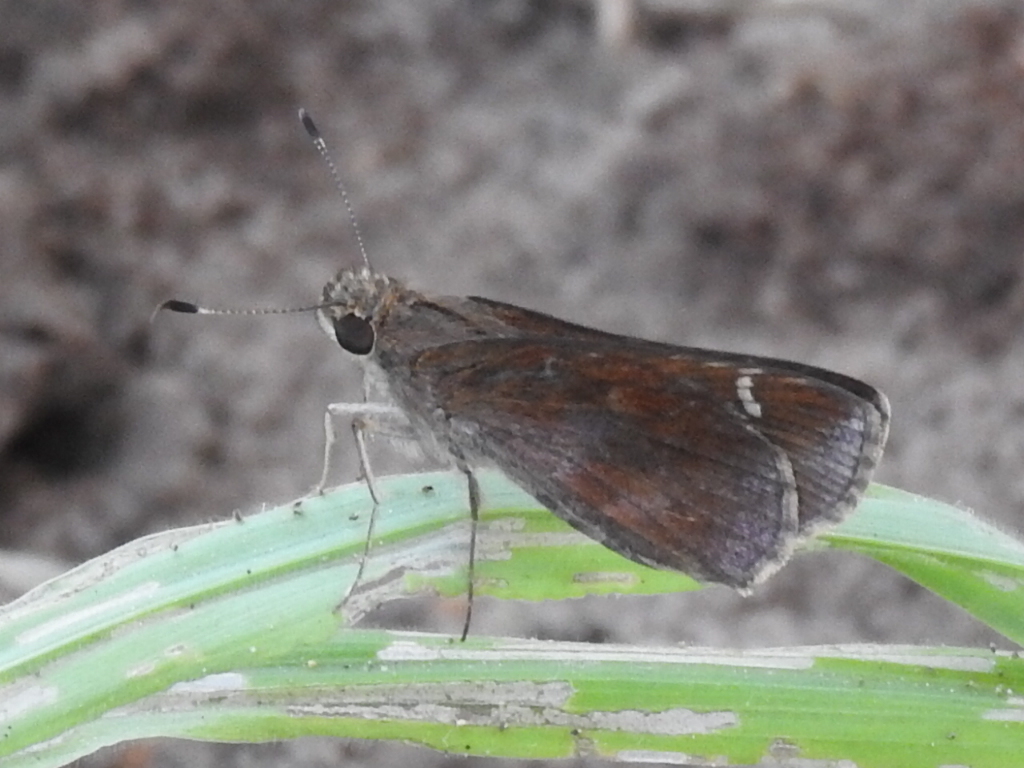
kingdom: Animalia
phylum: Arthropoda
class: Insecta
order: Lepidoptera
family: Hesperiidae
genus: Lerema
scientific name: Lerema accius
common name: Clouded skipper
